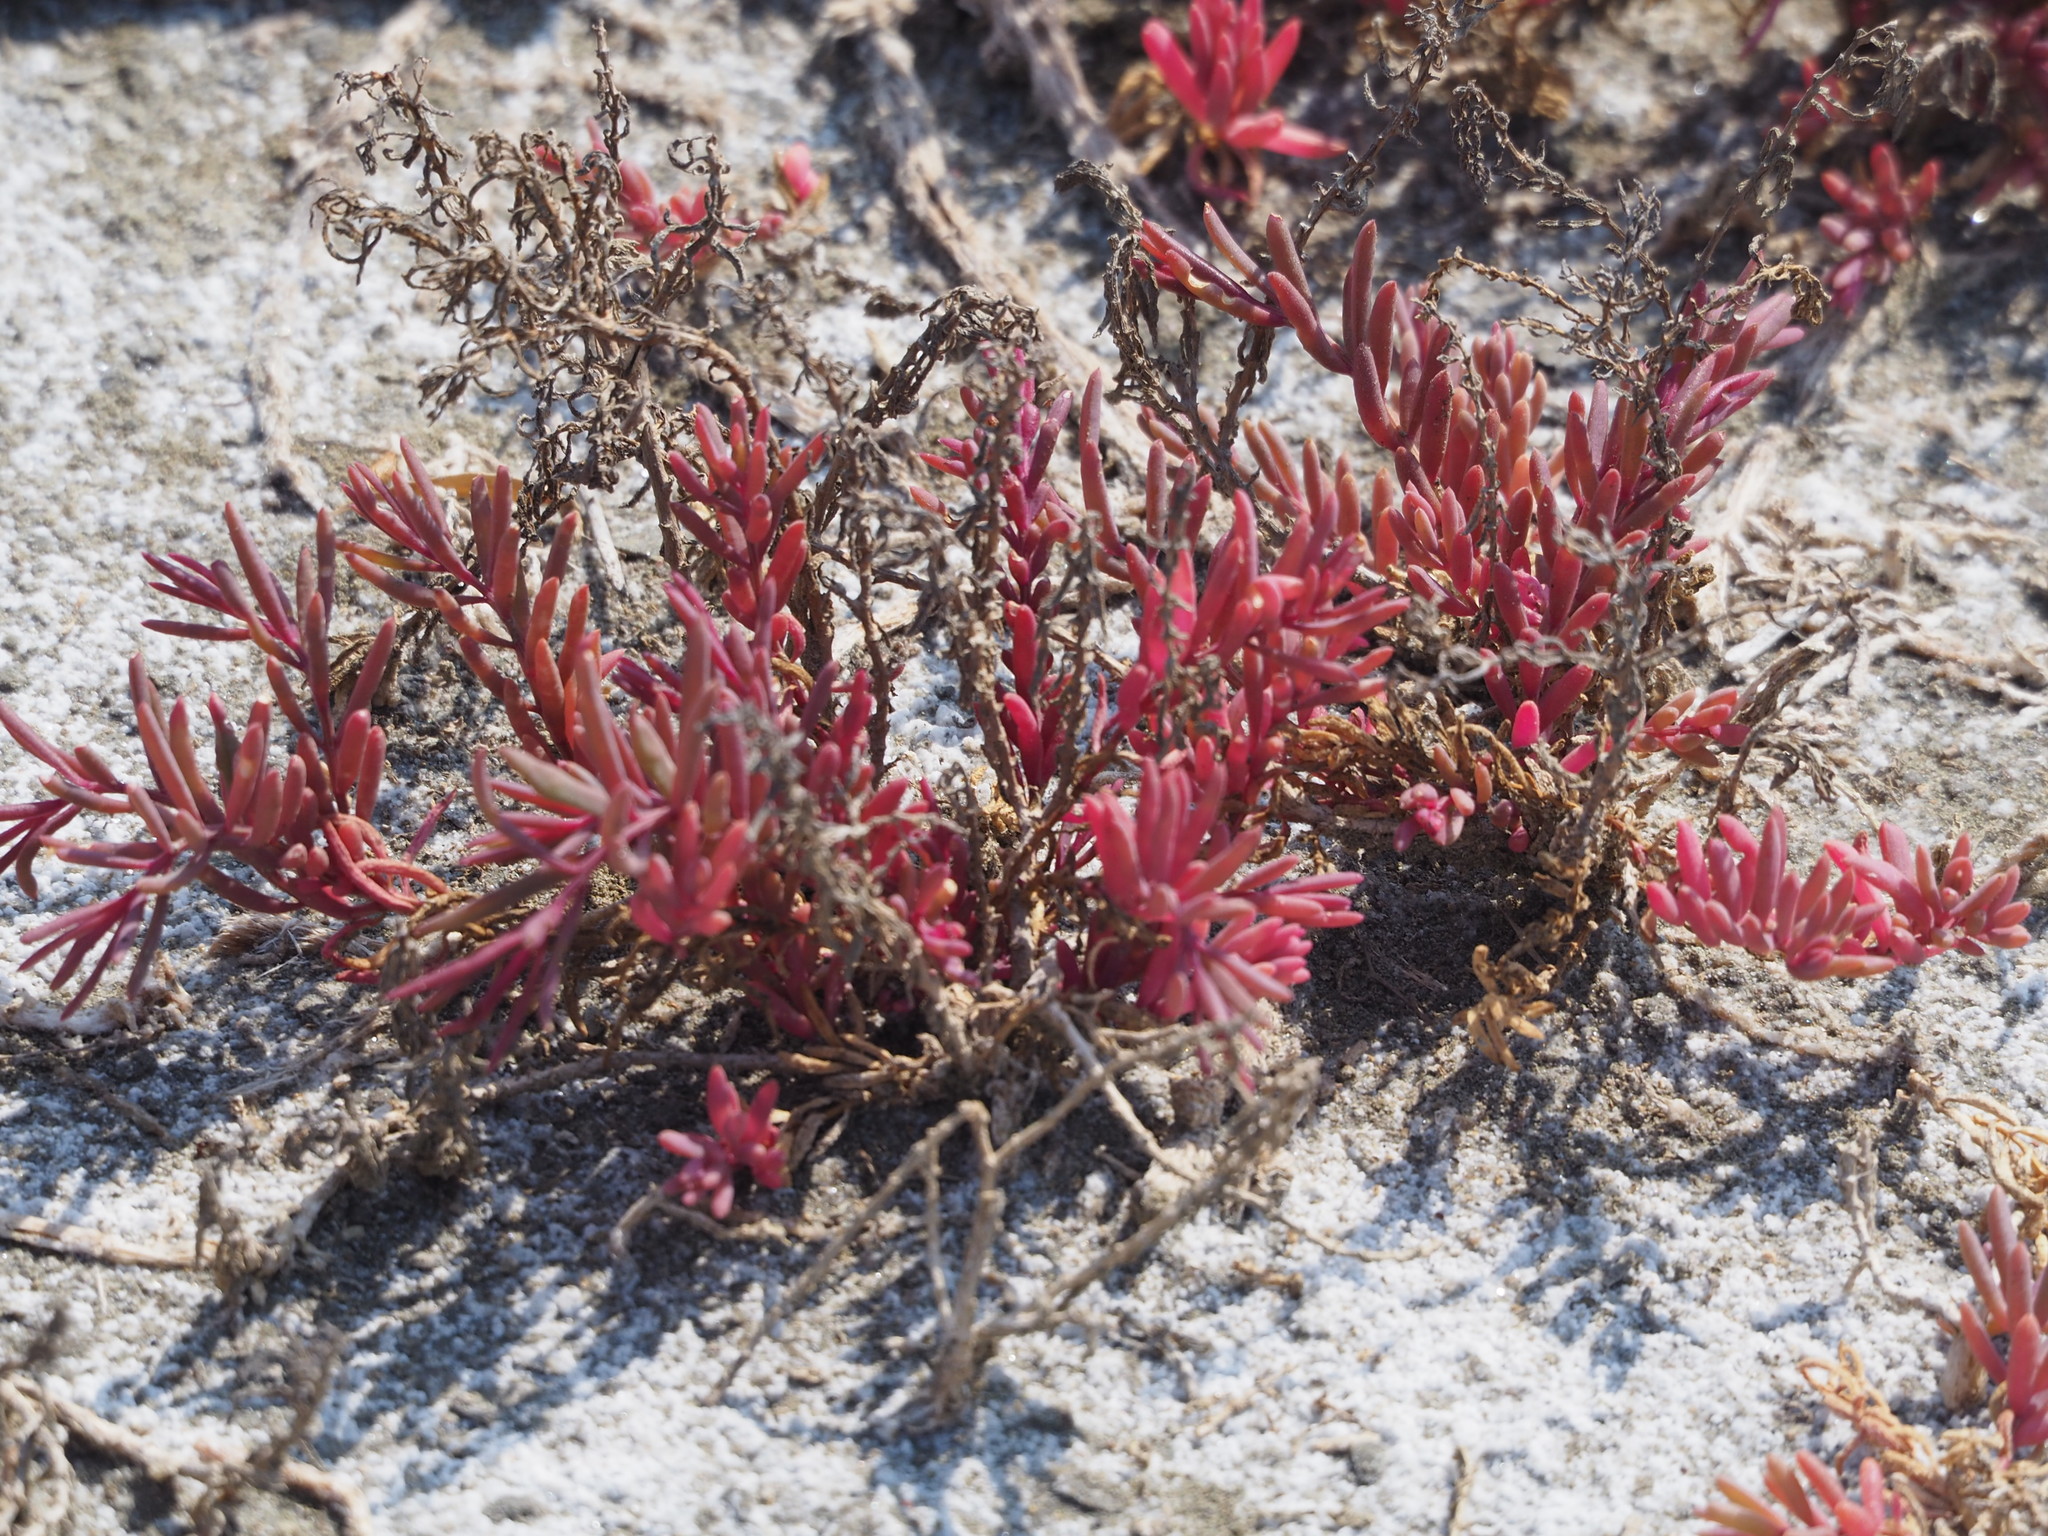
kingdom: Plantae
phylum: Tracheophyta
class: Magnoliopsida
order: Caryophyllales
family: Amaranthaceae
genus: Suaeda
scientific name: Suaeda maritima
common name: Annual sea-blite
